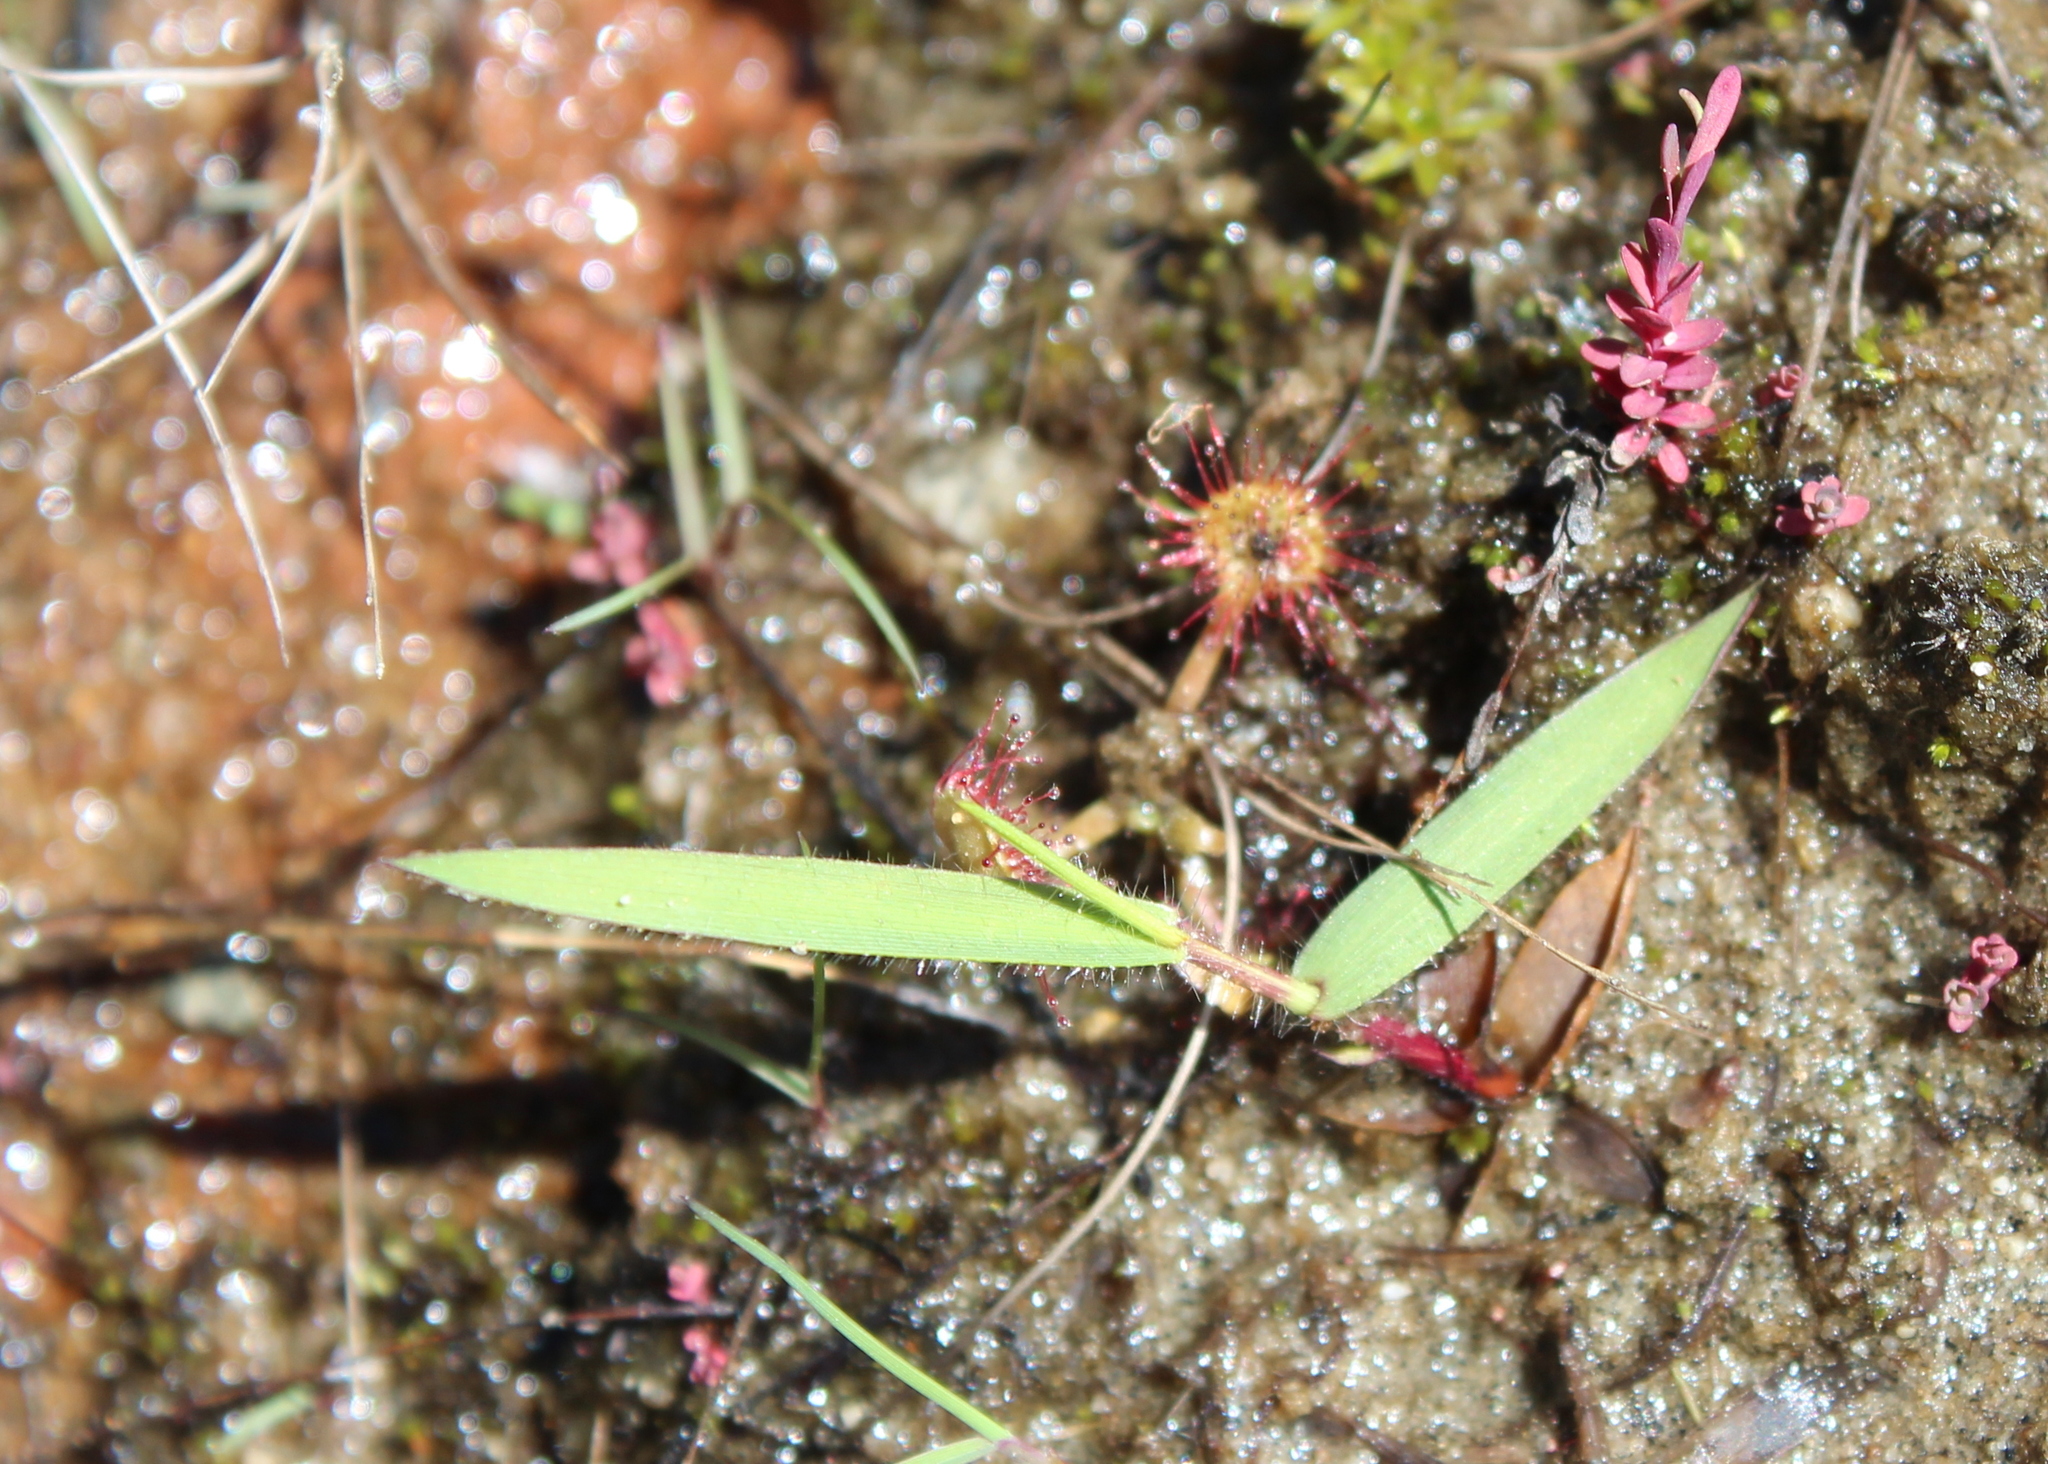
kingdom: Plantae
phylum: Tracheophyta
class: Magnoliopsida
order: Caryophyllales
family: Droseraceae
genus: Drosera
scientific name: Drosera rotundifolia
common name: Round-leaved sundew
